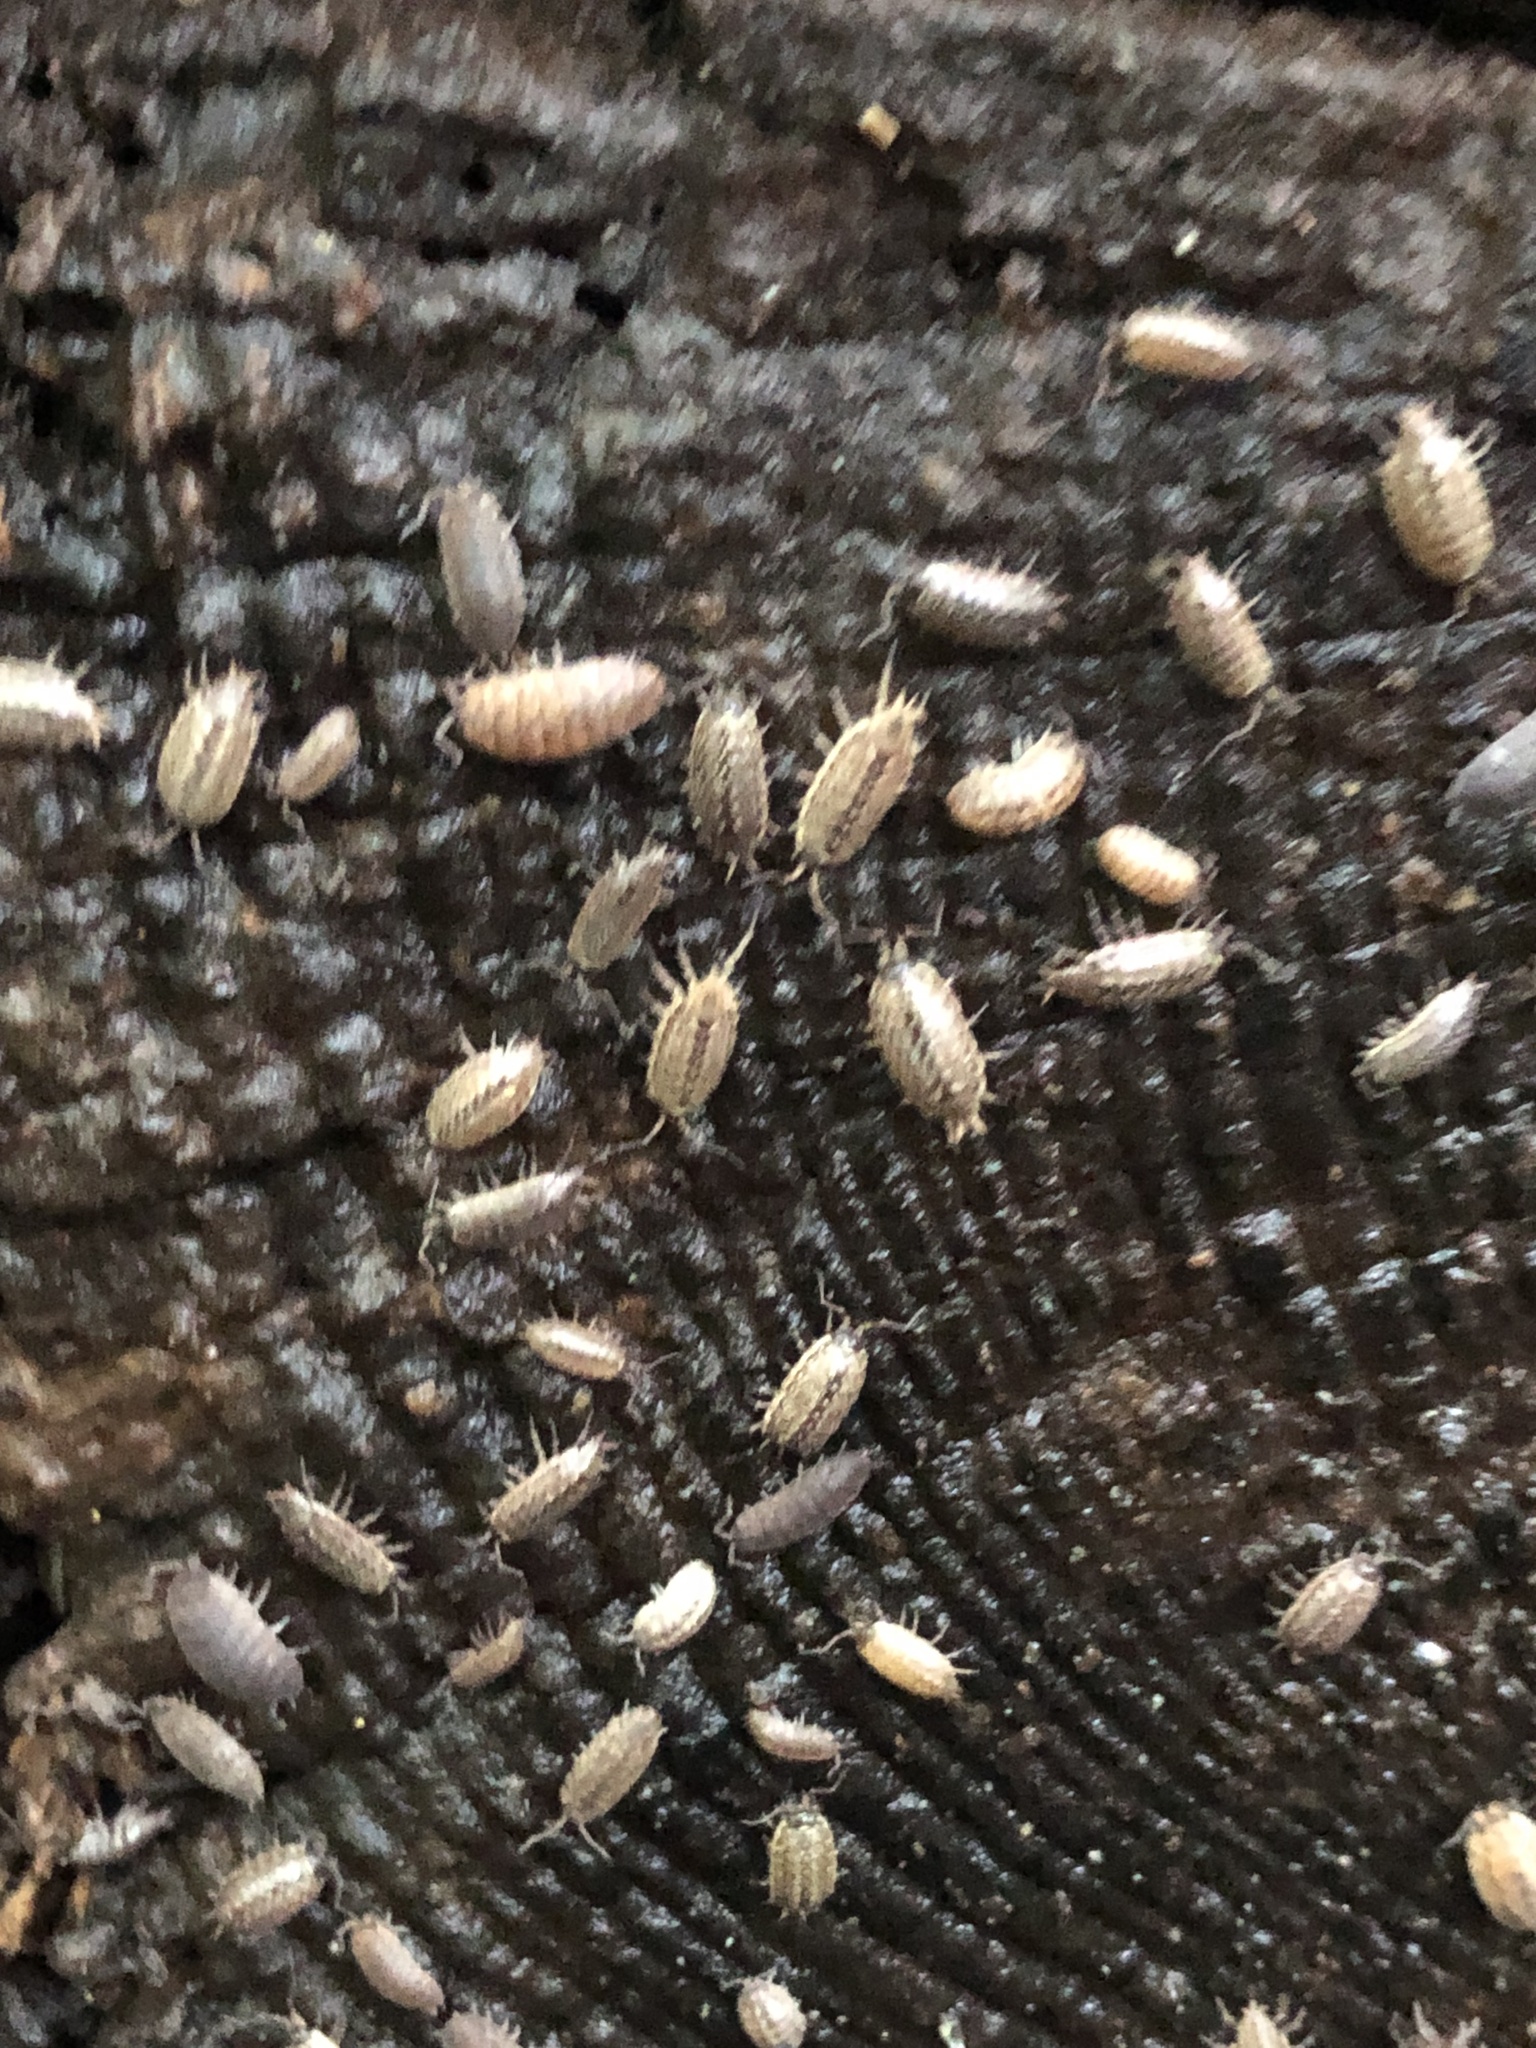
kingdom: Animalia
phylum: Arthropoda
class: Malacostraca
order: Isopoda
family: Philosciidae
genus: Philoscia
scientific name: Philoscia muscorum
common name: Common striped woodlouse
